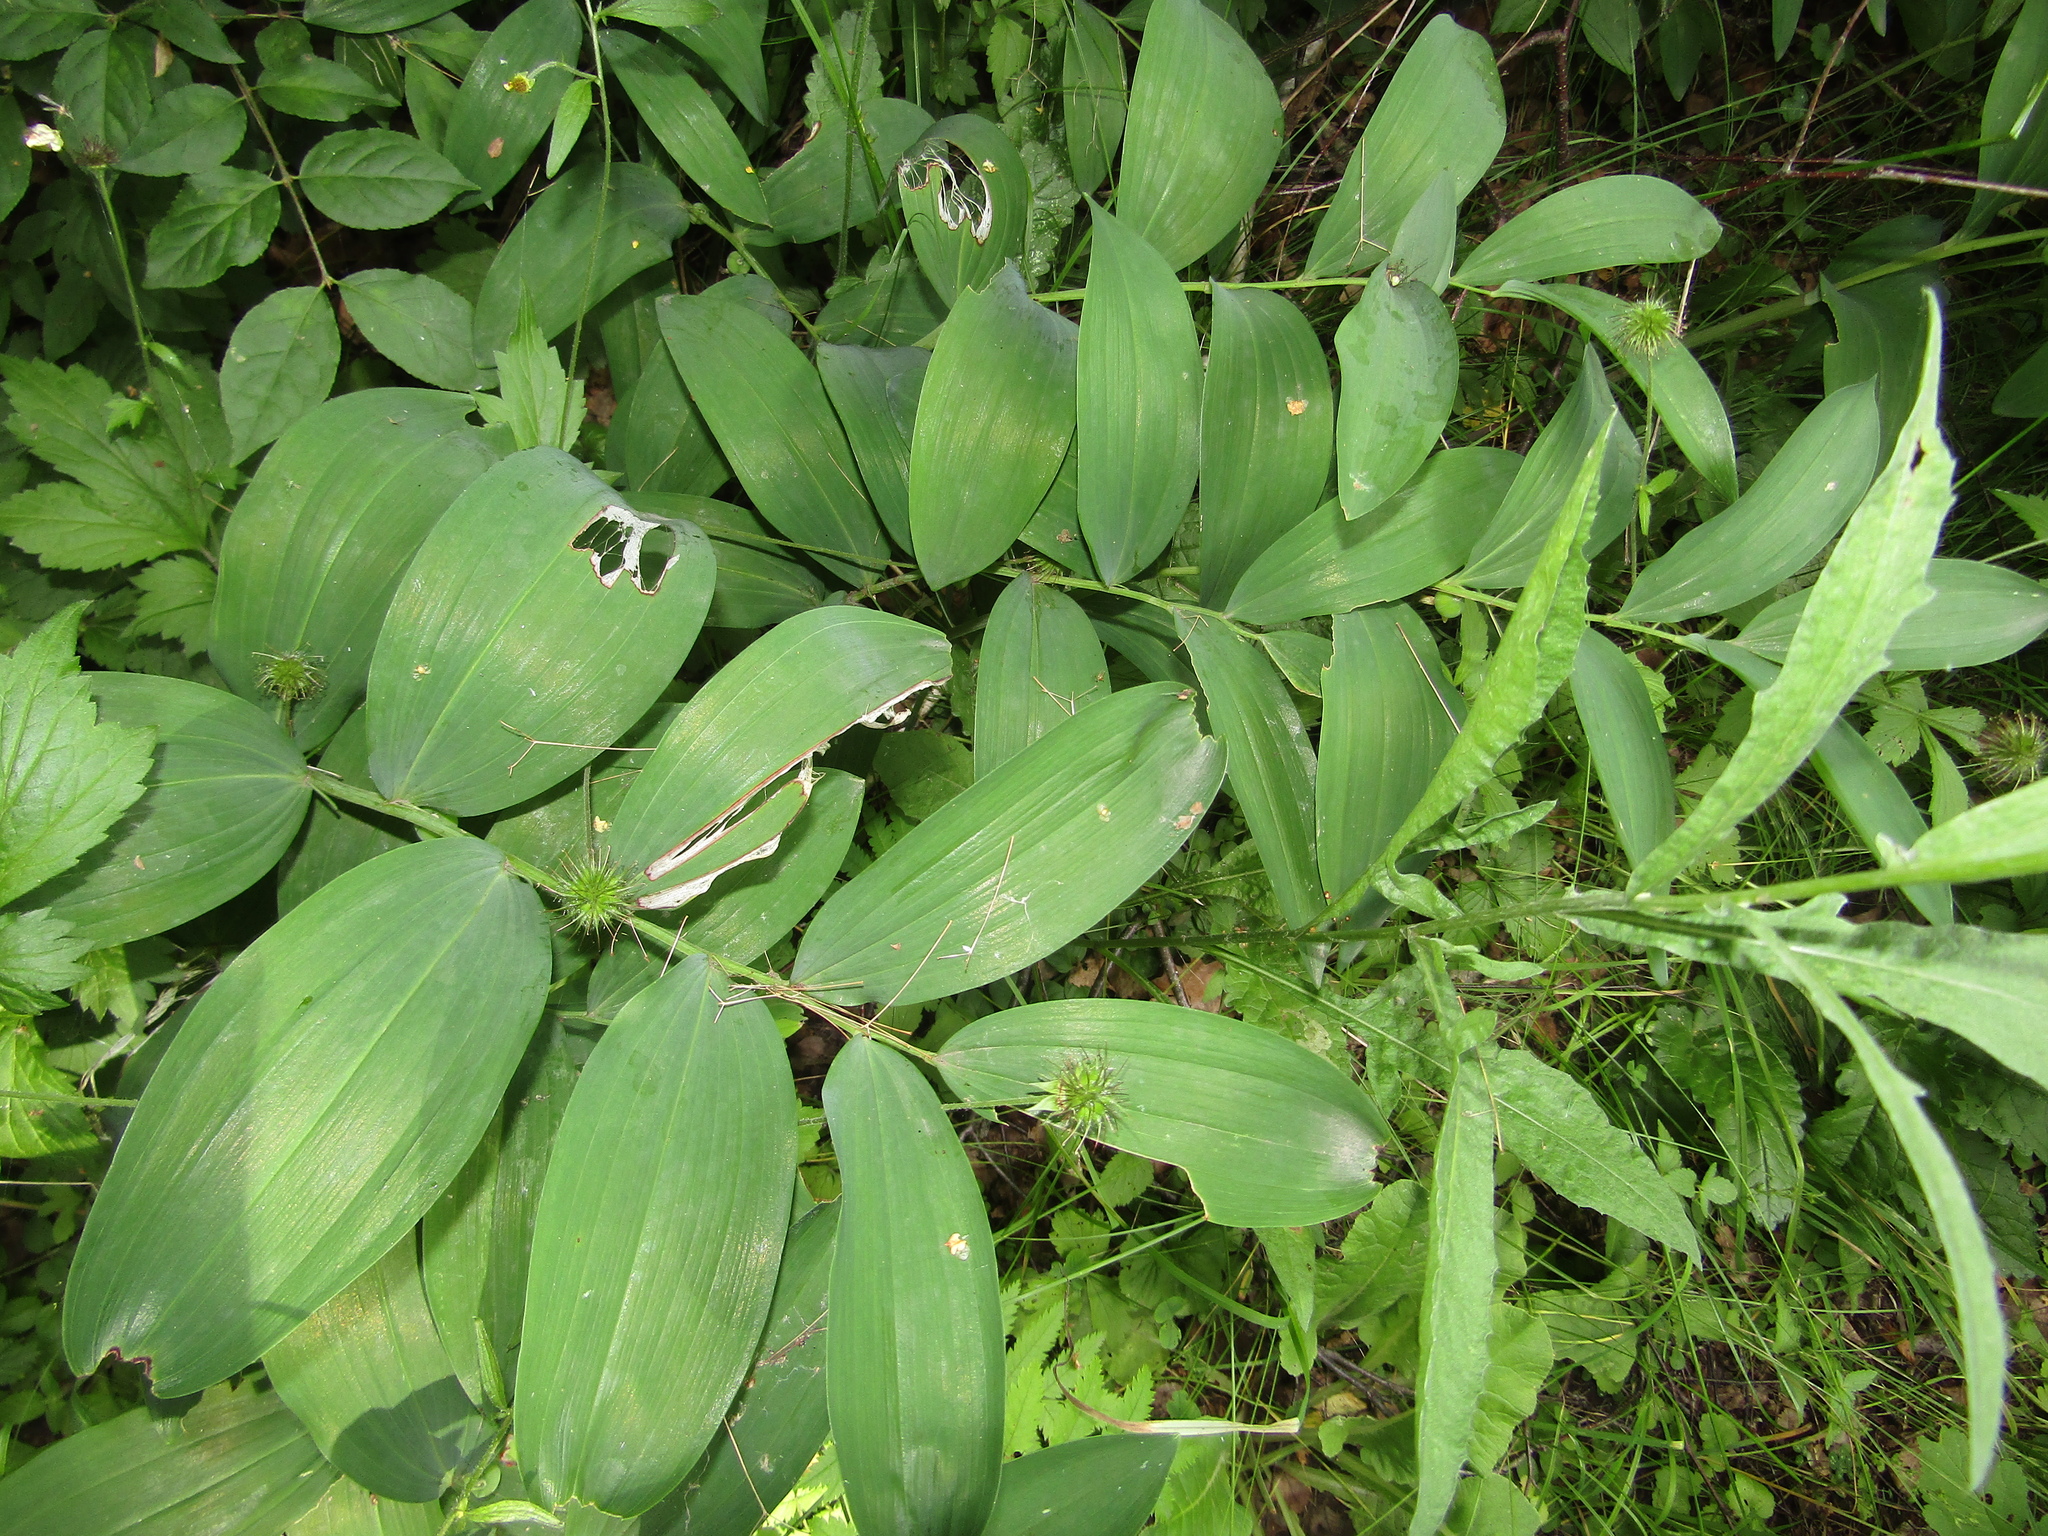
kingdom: Plantae
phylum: Tracheophyta
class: Liliopsida
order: Asparagales
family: Asparagaceae
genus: Polygonatum
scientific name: Polygonatum odoratum
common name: Angular solomon's-seal
